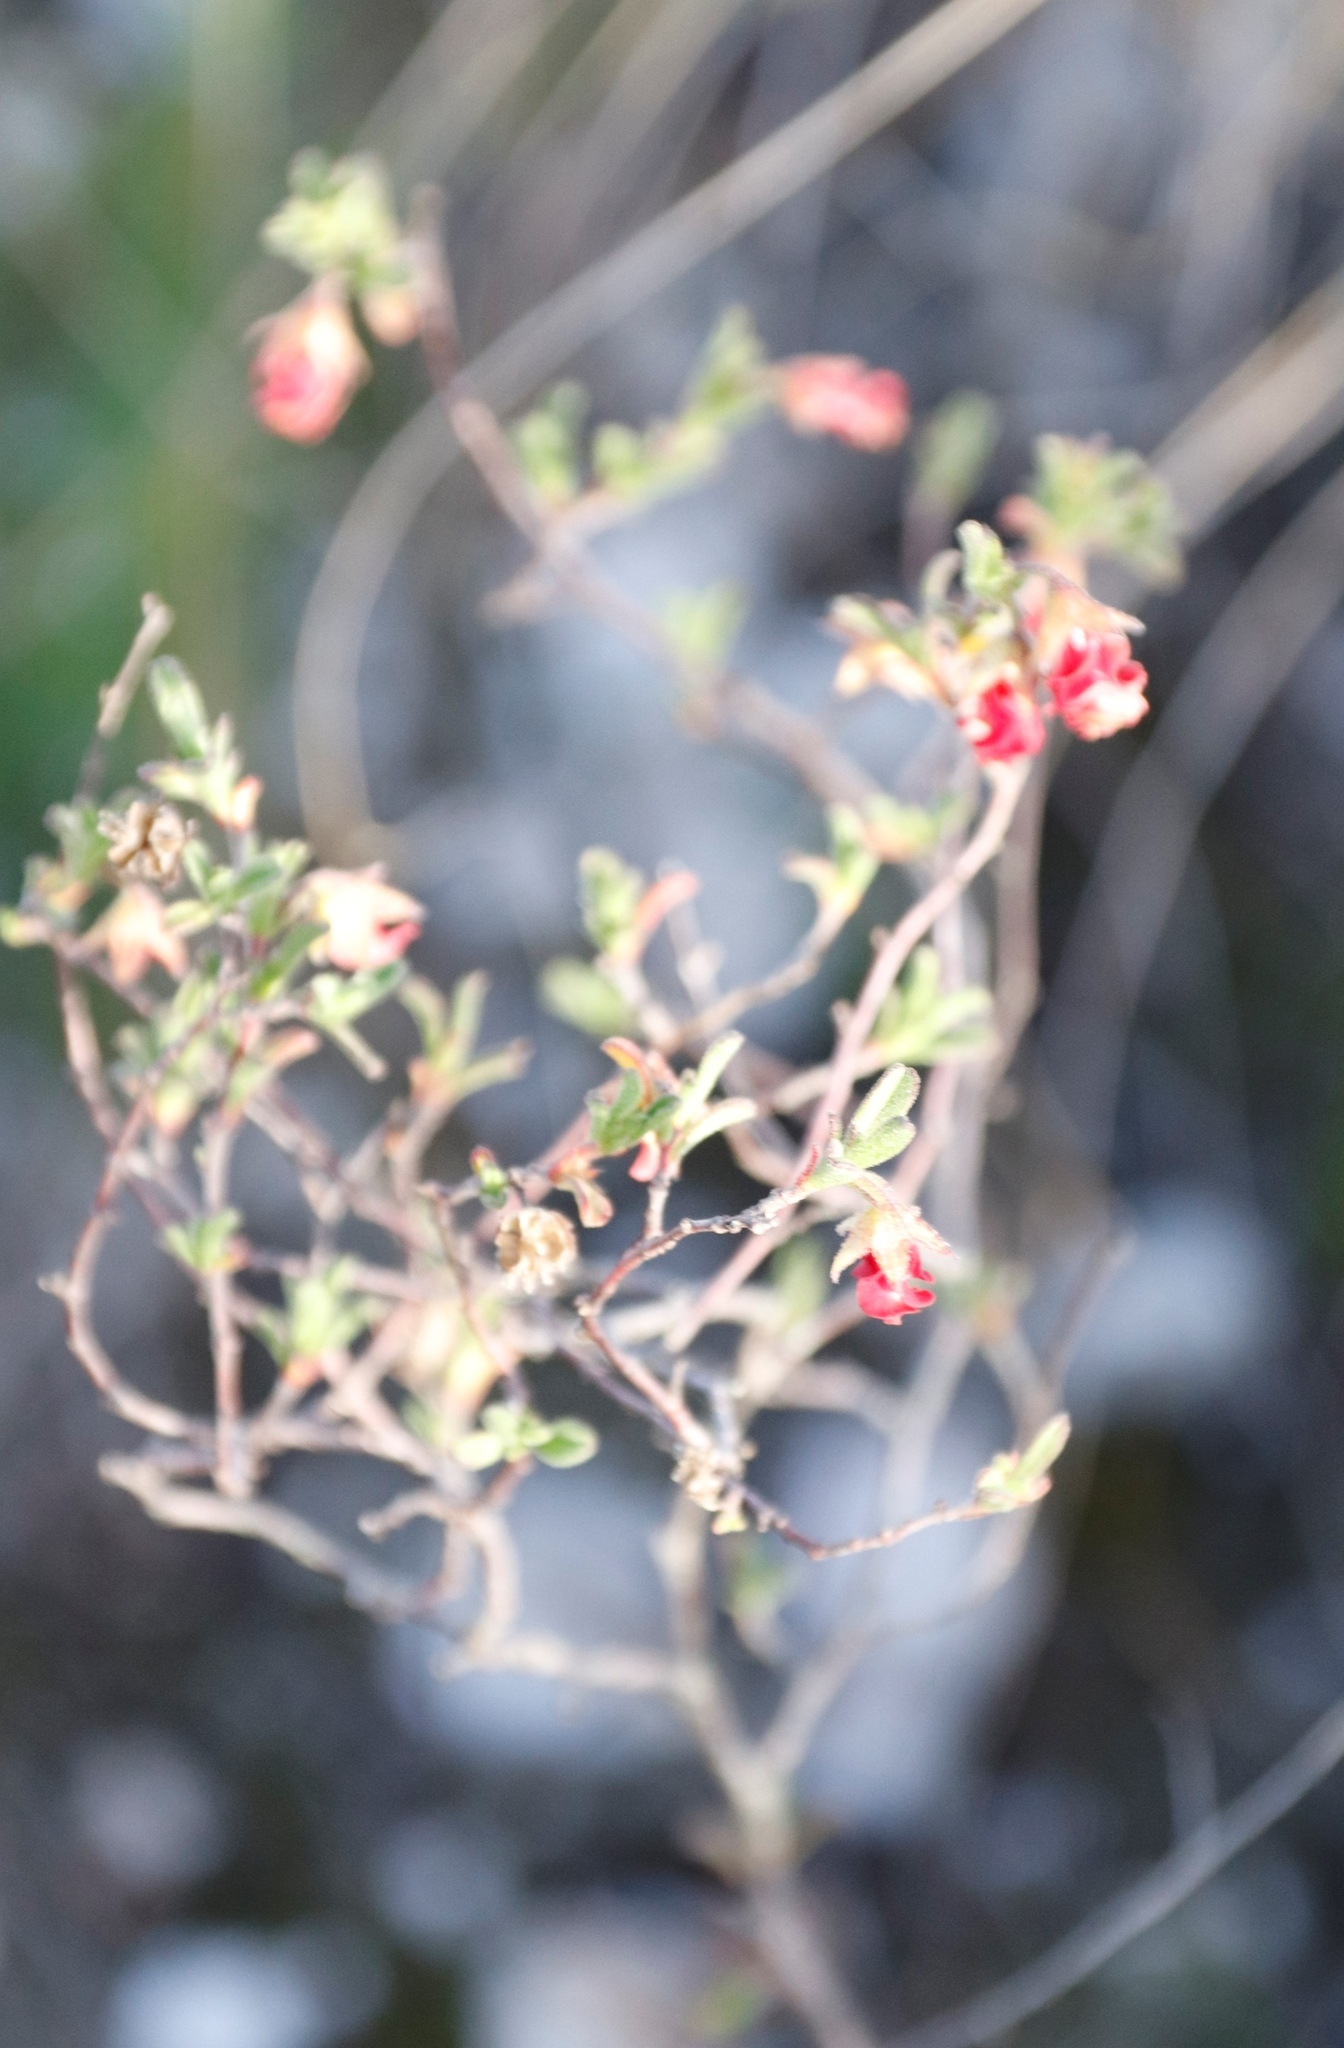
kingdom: Plantae
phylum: Tracheophyta
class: Magnoliopsida
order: Malvales
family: Malvaceae
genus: Hermannia
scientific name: Hermannia flammula
